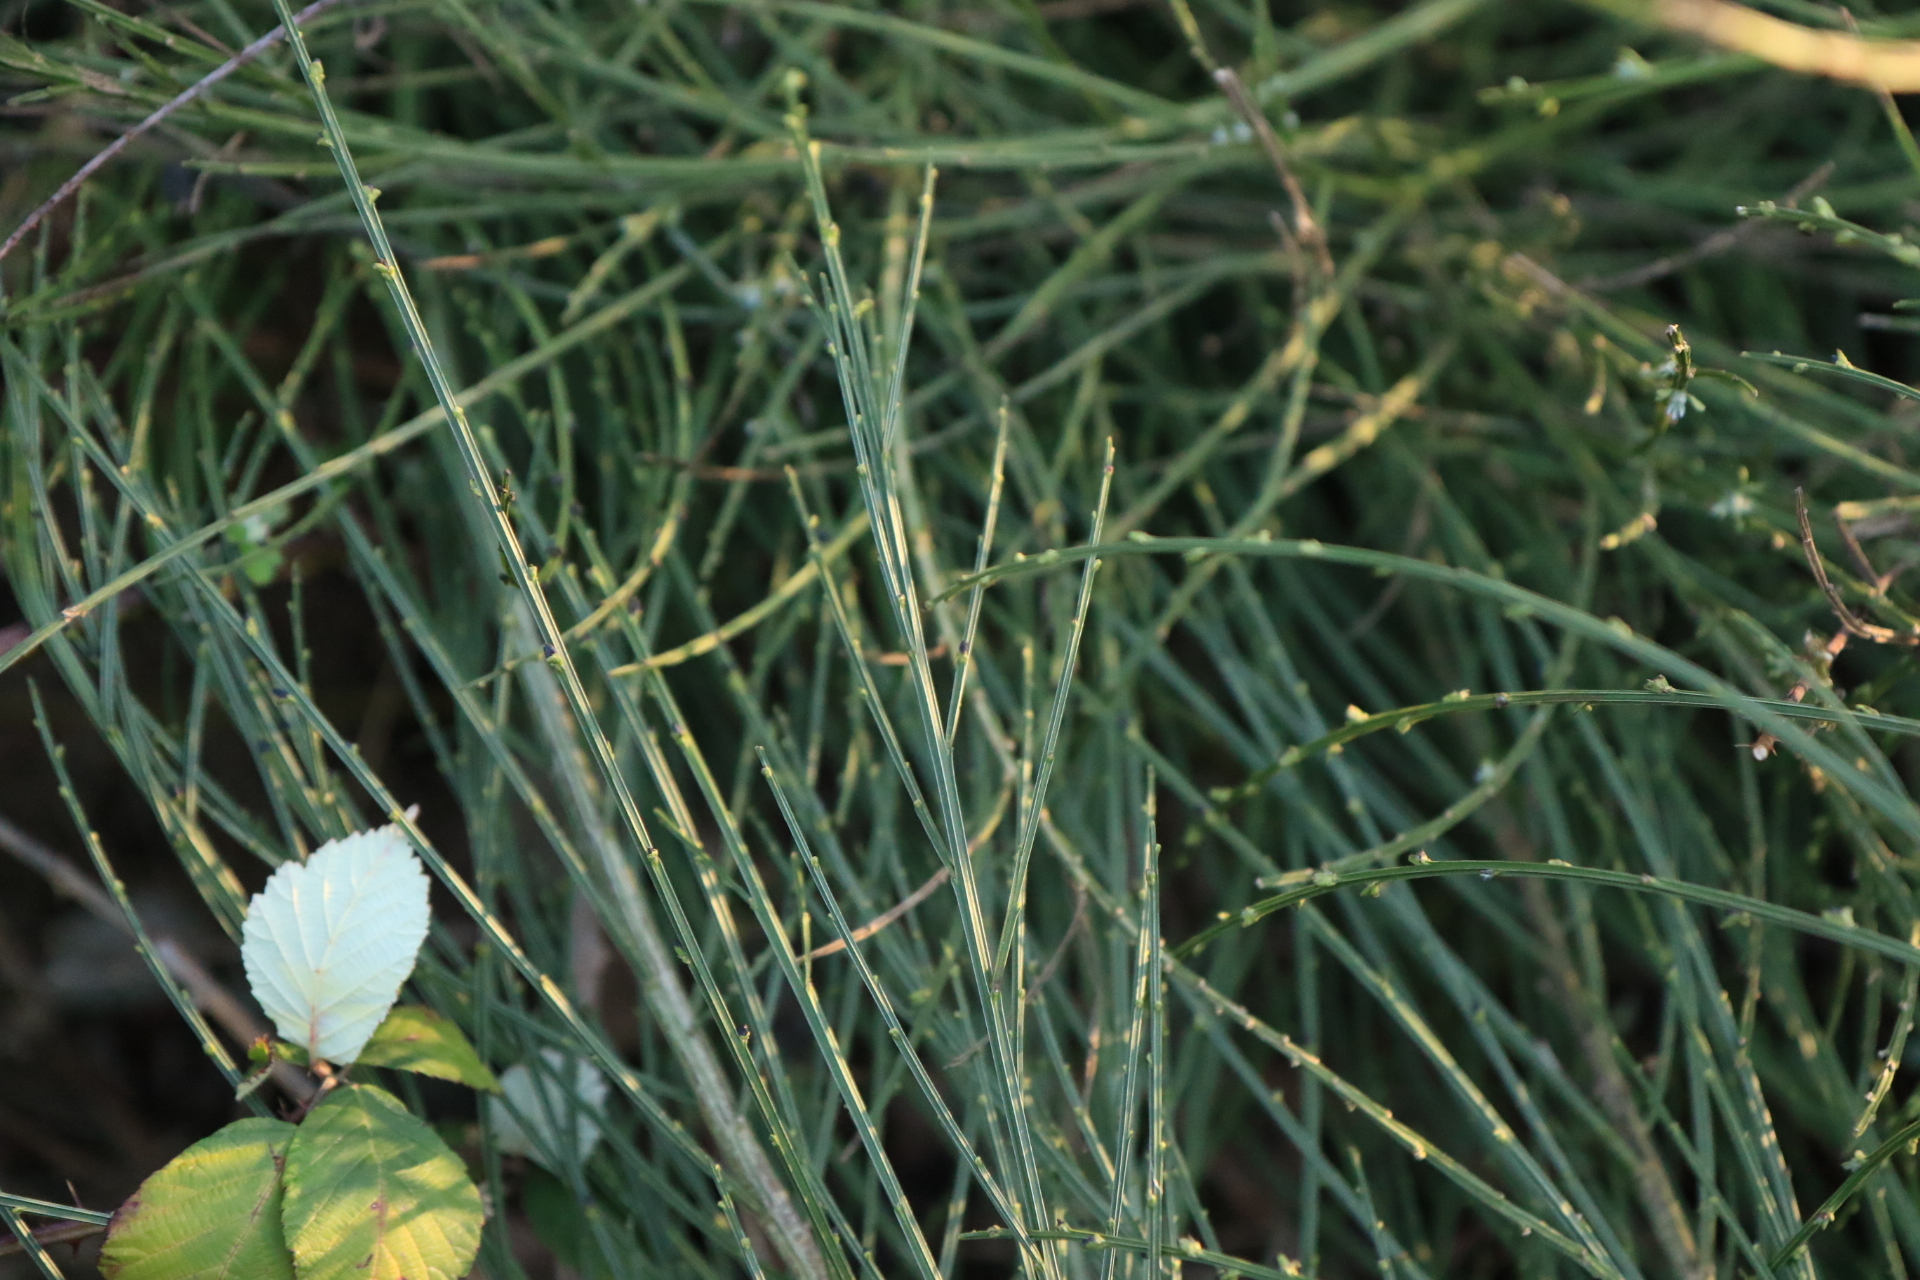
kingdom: Plantae
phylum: Tracheophyta
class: Magnoliopsida
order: Fabales
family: Fabaceae
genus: Cytisus
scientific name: Cytisus scoparius
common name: Scotch broom
